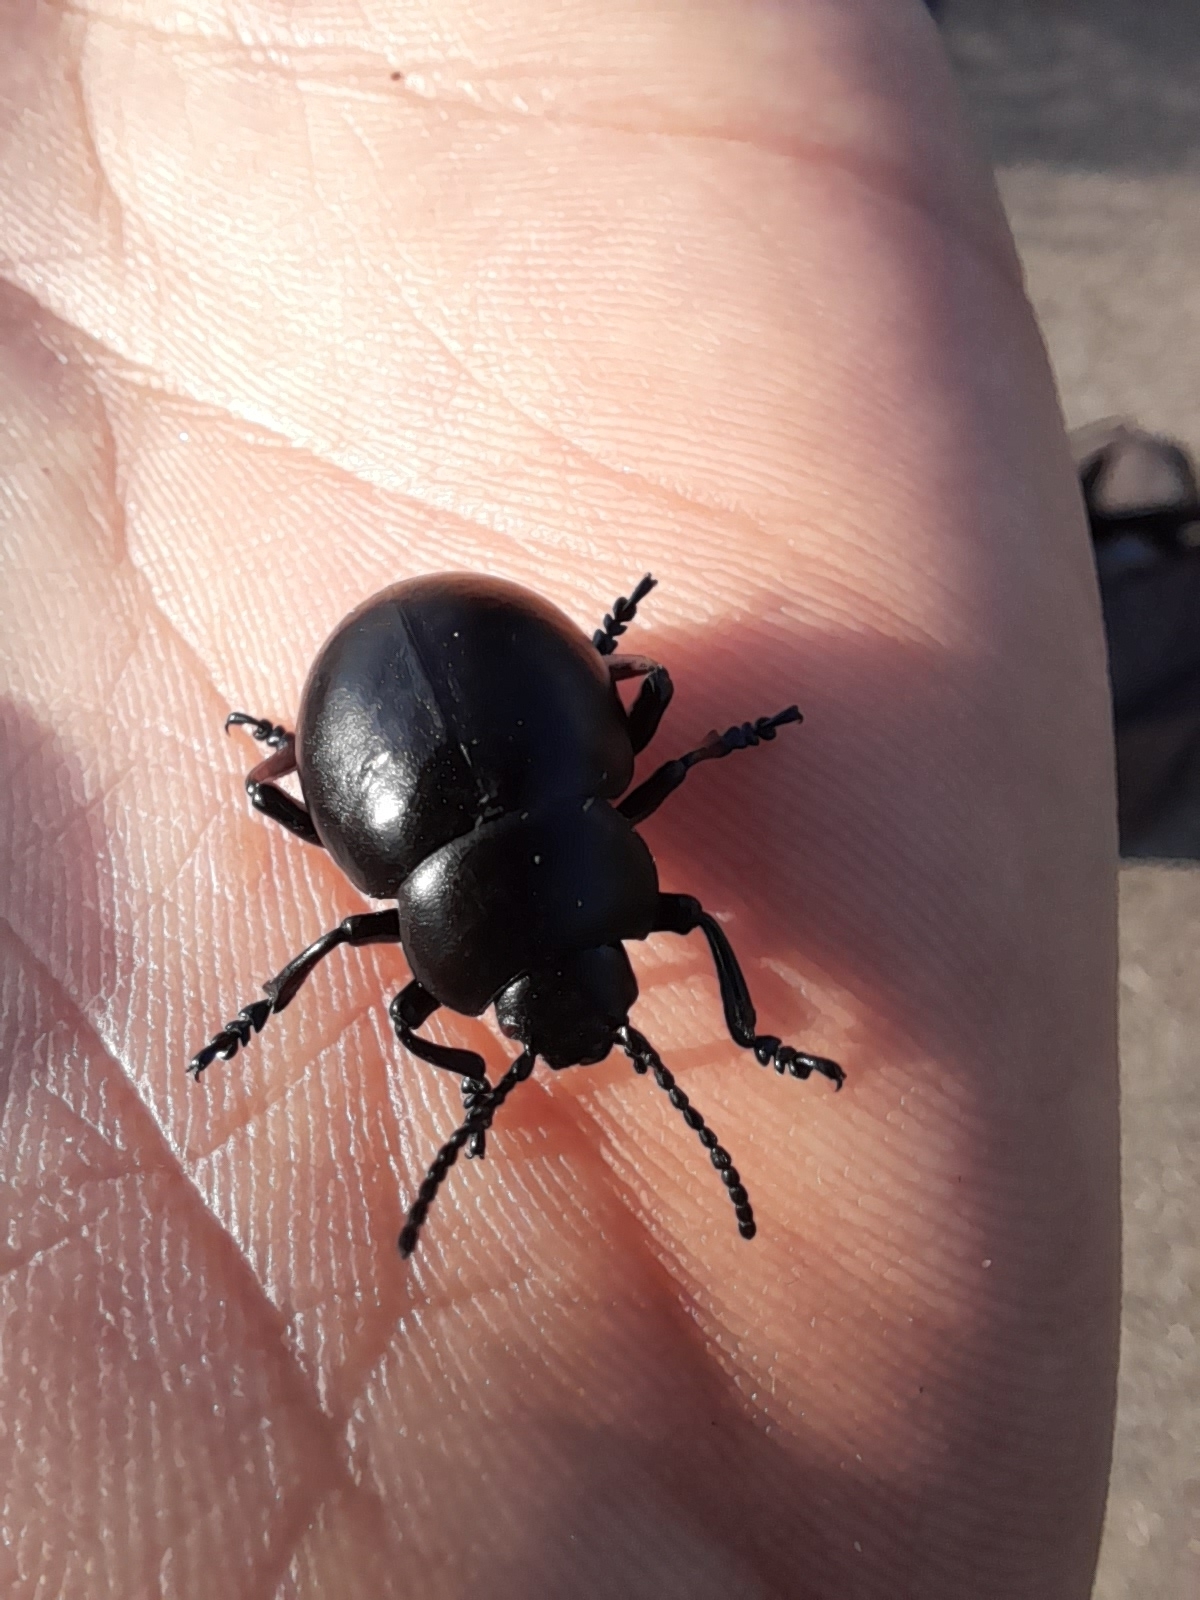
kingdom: Animalia
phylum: Arthropoda
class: Insecta
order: Coleoptera
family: Chrysomelidae
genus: Timarcha
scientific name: Timarcha nicaeensis
